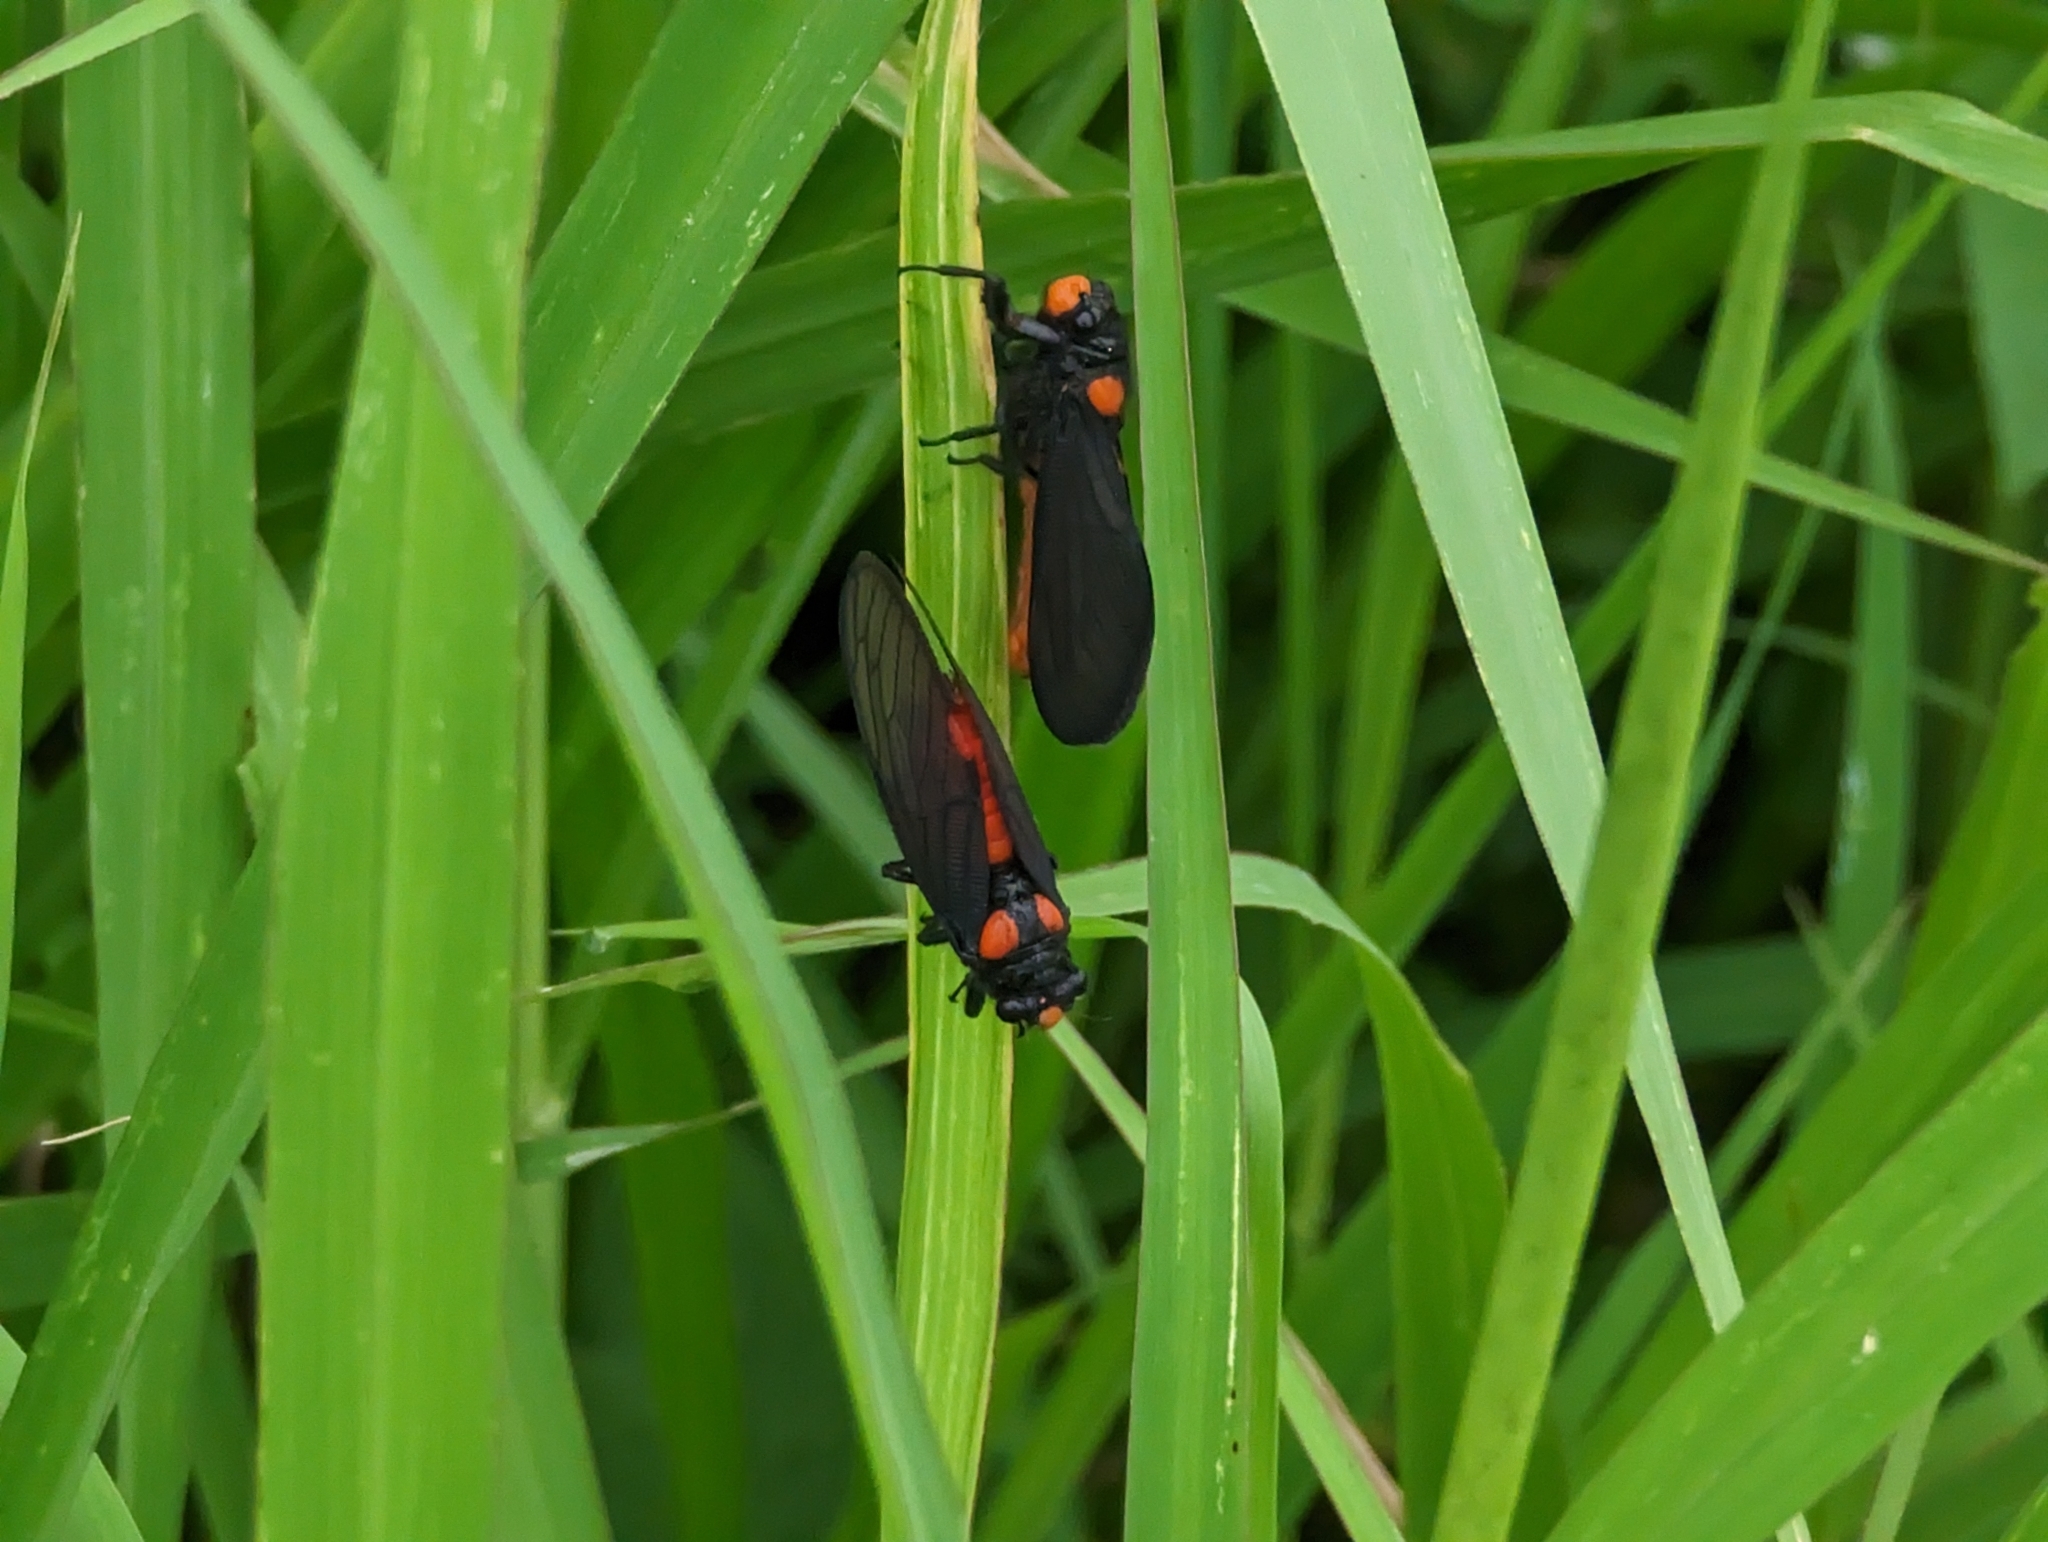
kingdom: Animalia
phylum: Arthropoda
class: Insecta
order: Hemiptera
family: Cicadidae
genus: Huechys
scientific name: Huechys sanguinea
